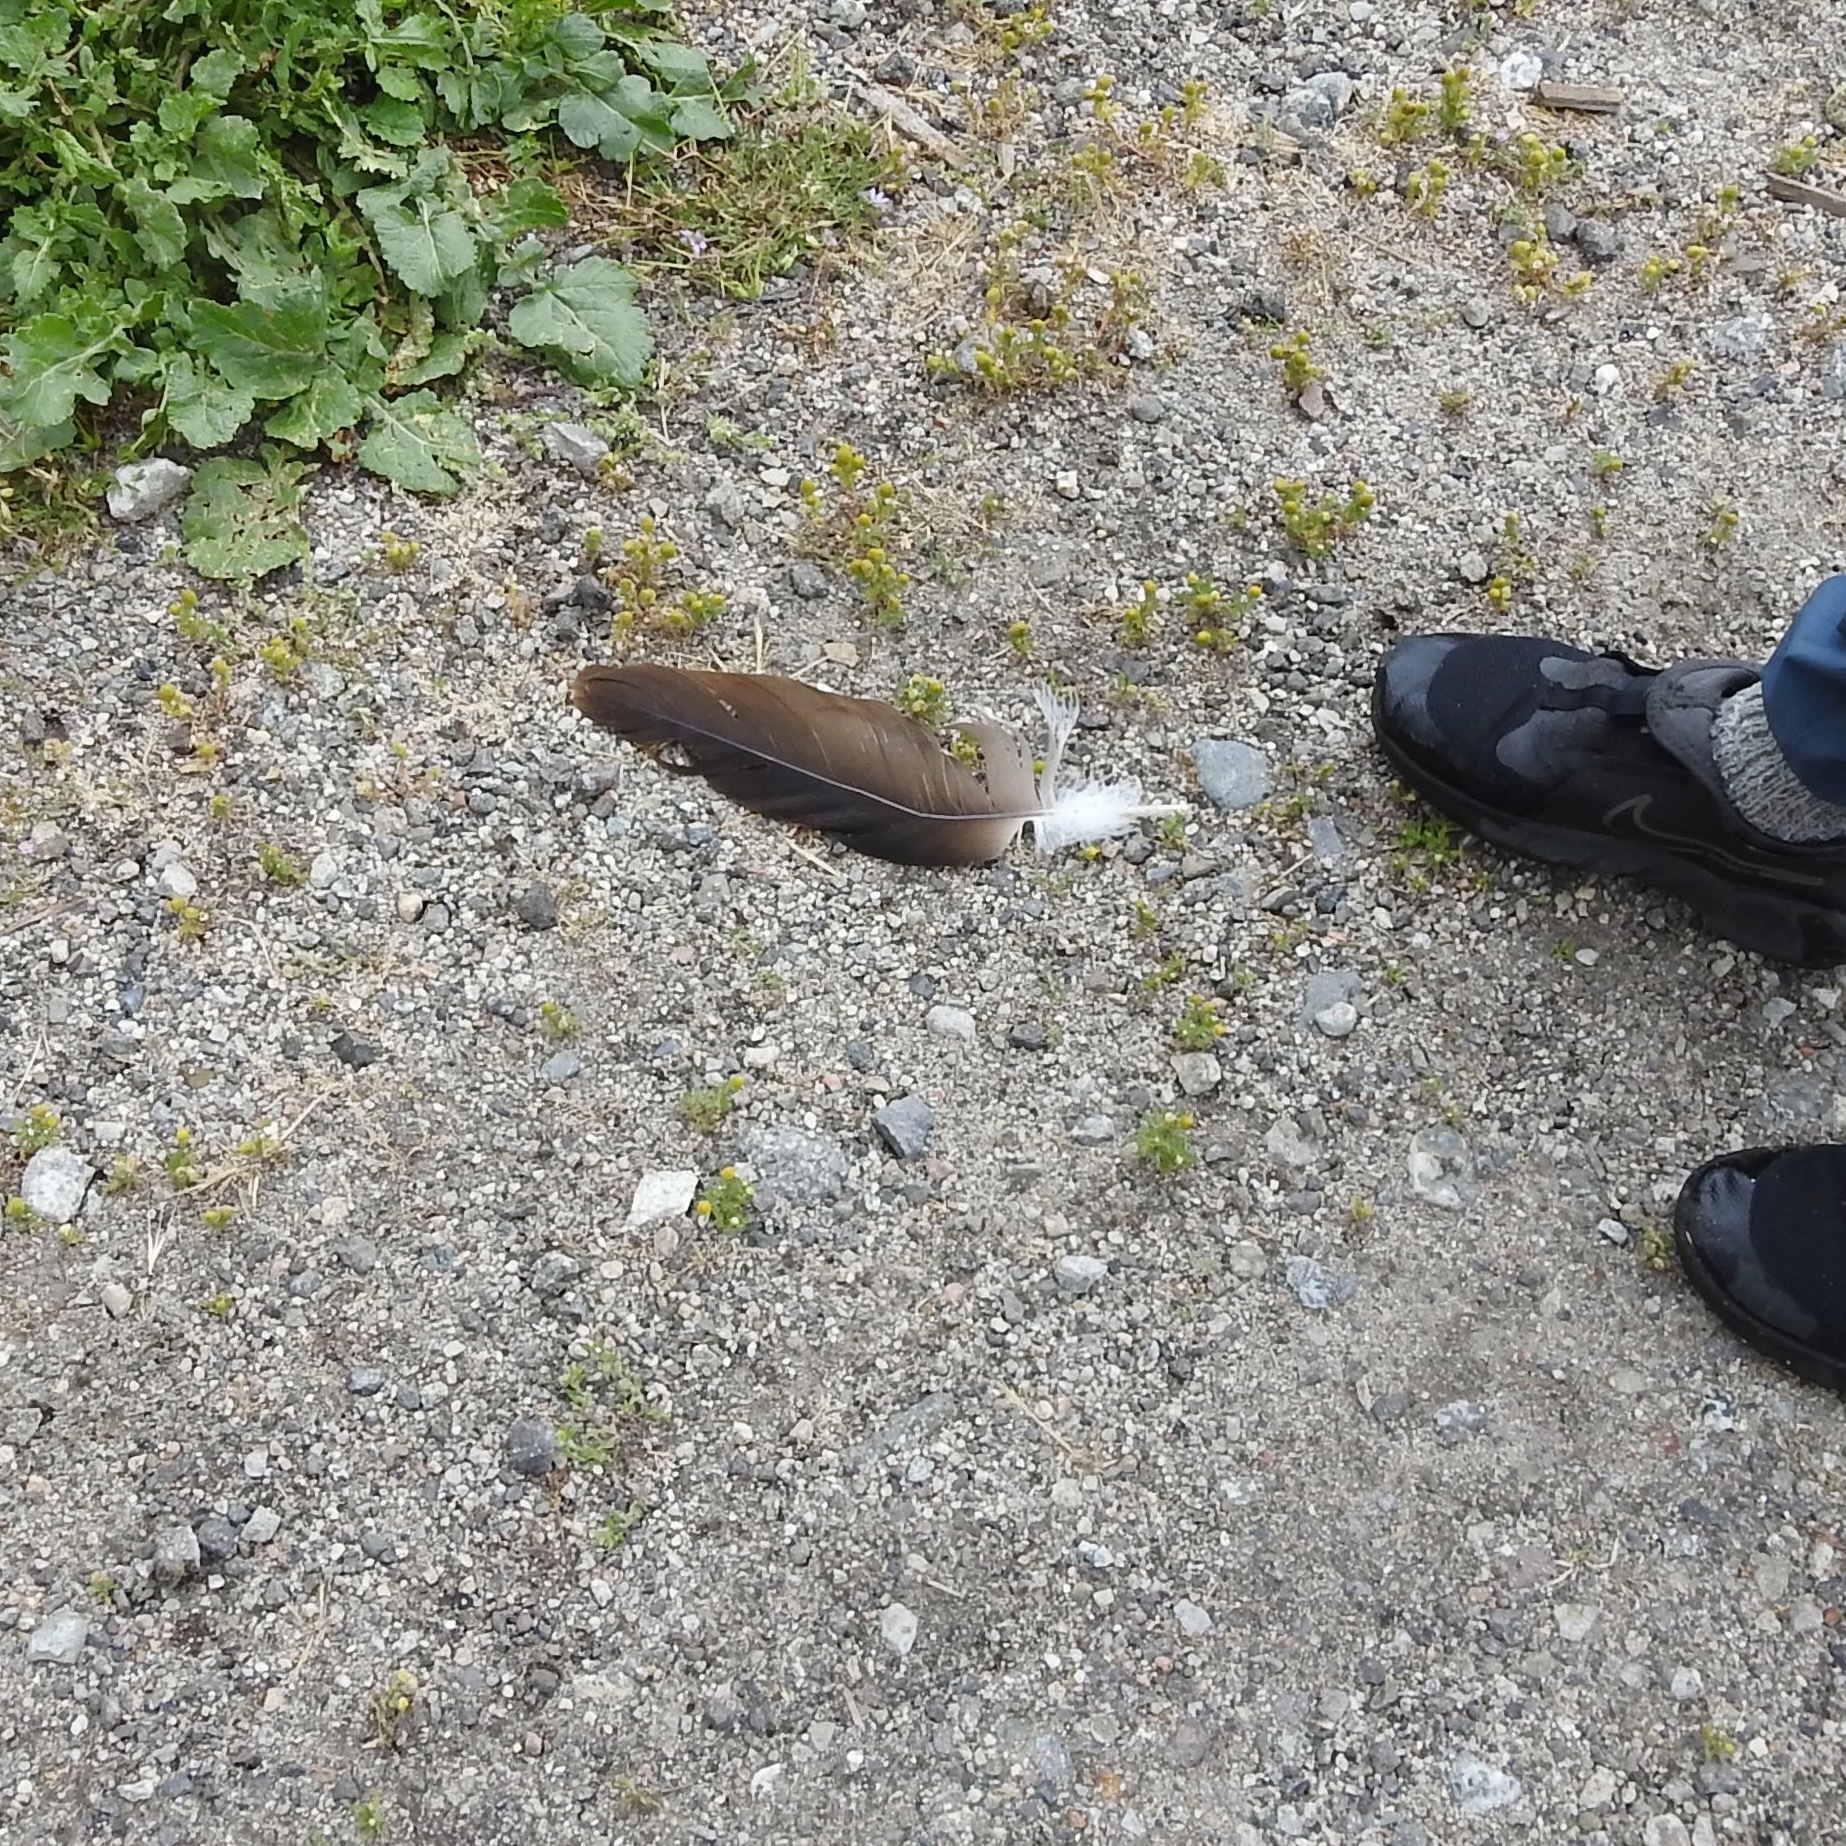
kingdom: Animalia
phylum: Chordata
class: Aves
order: Accipitriformes
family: Cathartidae
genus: Cathartes
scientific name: Cathartes aura
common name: Turkey vulture
